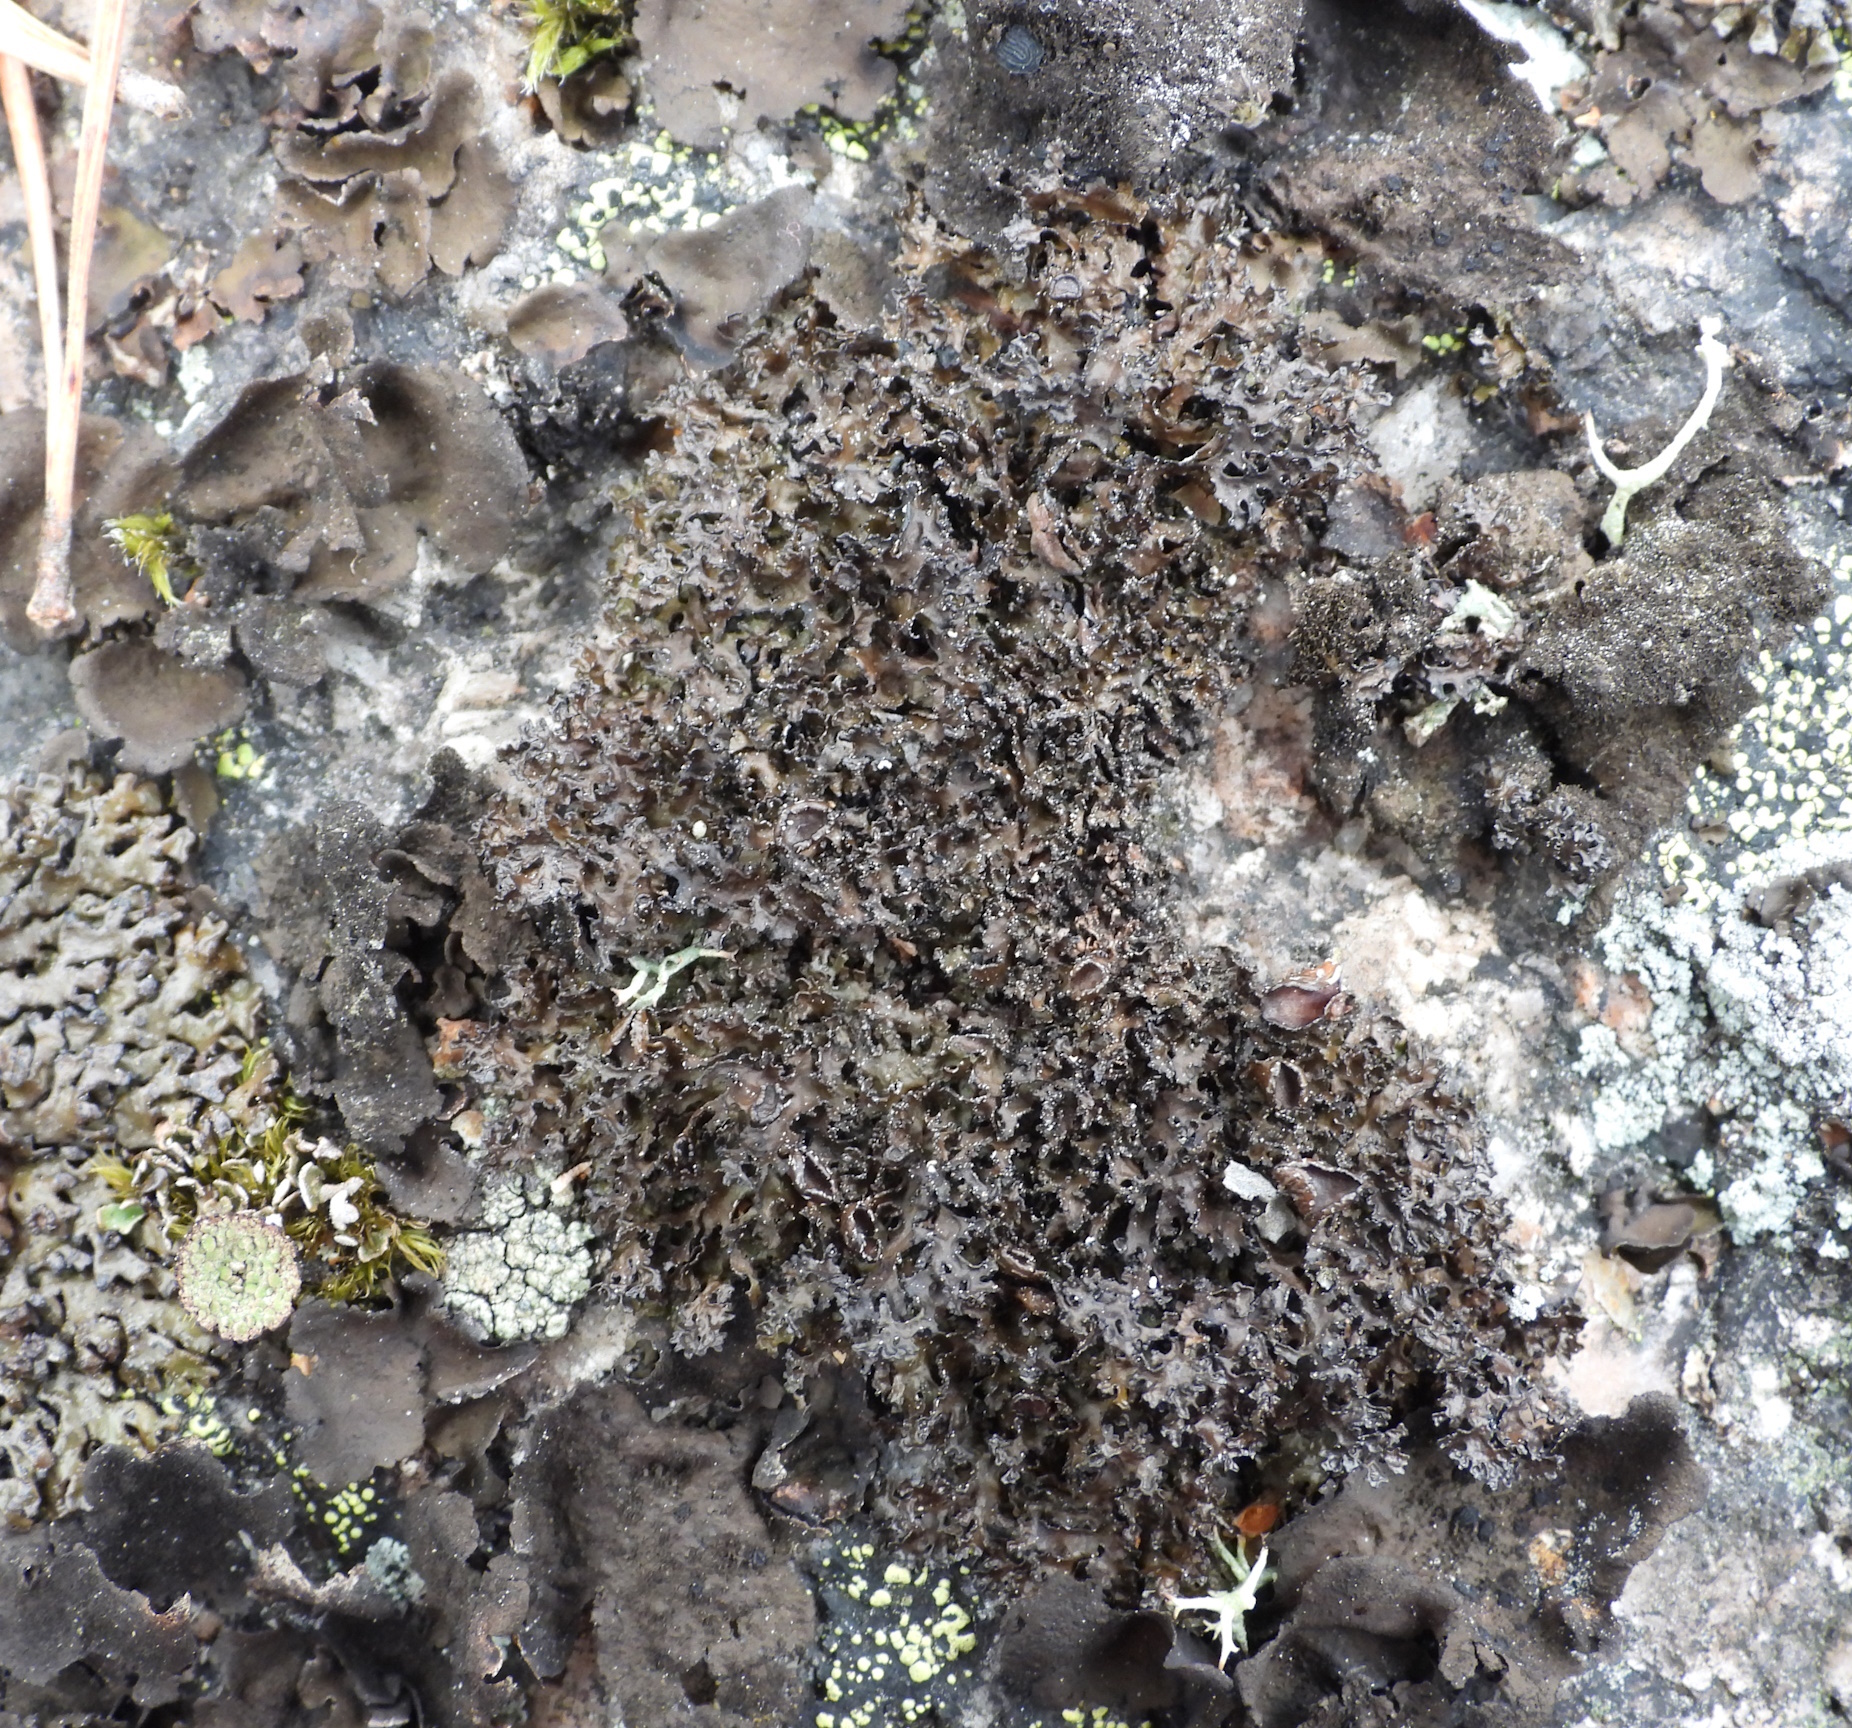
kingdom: Fungi
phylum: Ascomycota
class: Lecanoromycetes
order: Lecanorales
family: Parmeliaceae
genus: Melanelia
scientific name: Melanelia commixta
